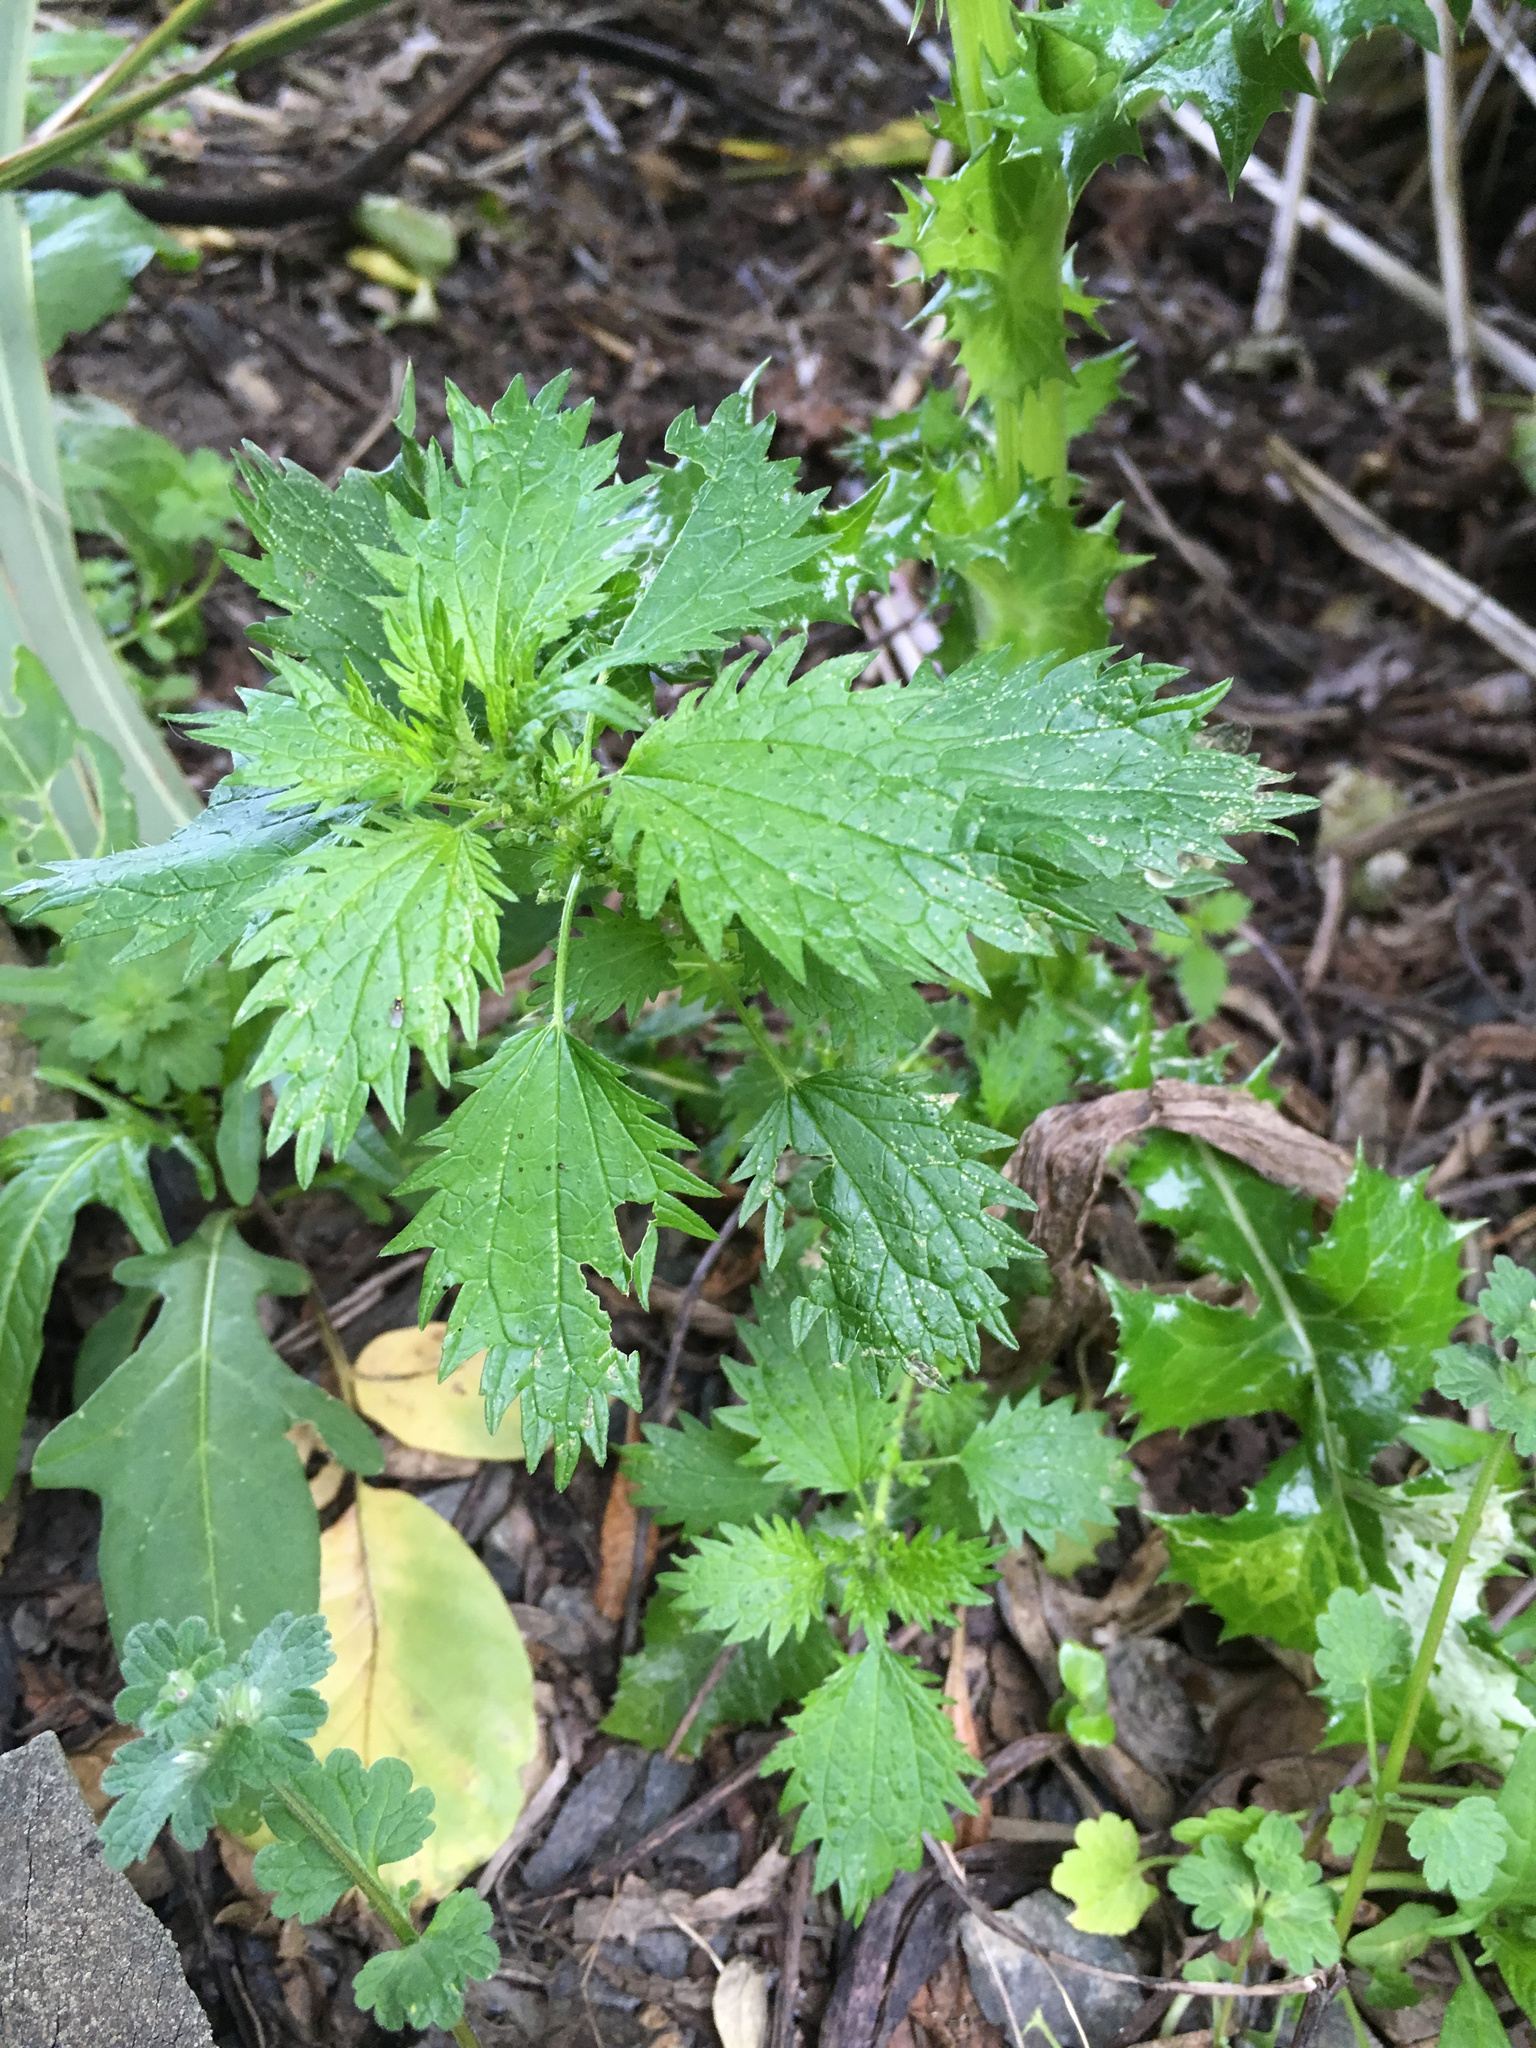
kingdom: Plantae
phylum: Tracheophyta
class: Magnoliopsida
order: Rosales
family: Urticaceae
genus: Urtica
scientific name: Urtica urens
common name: Dwarf nettle
